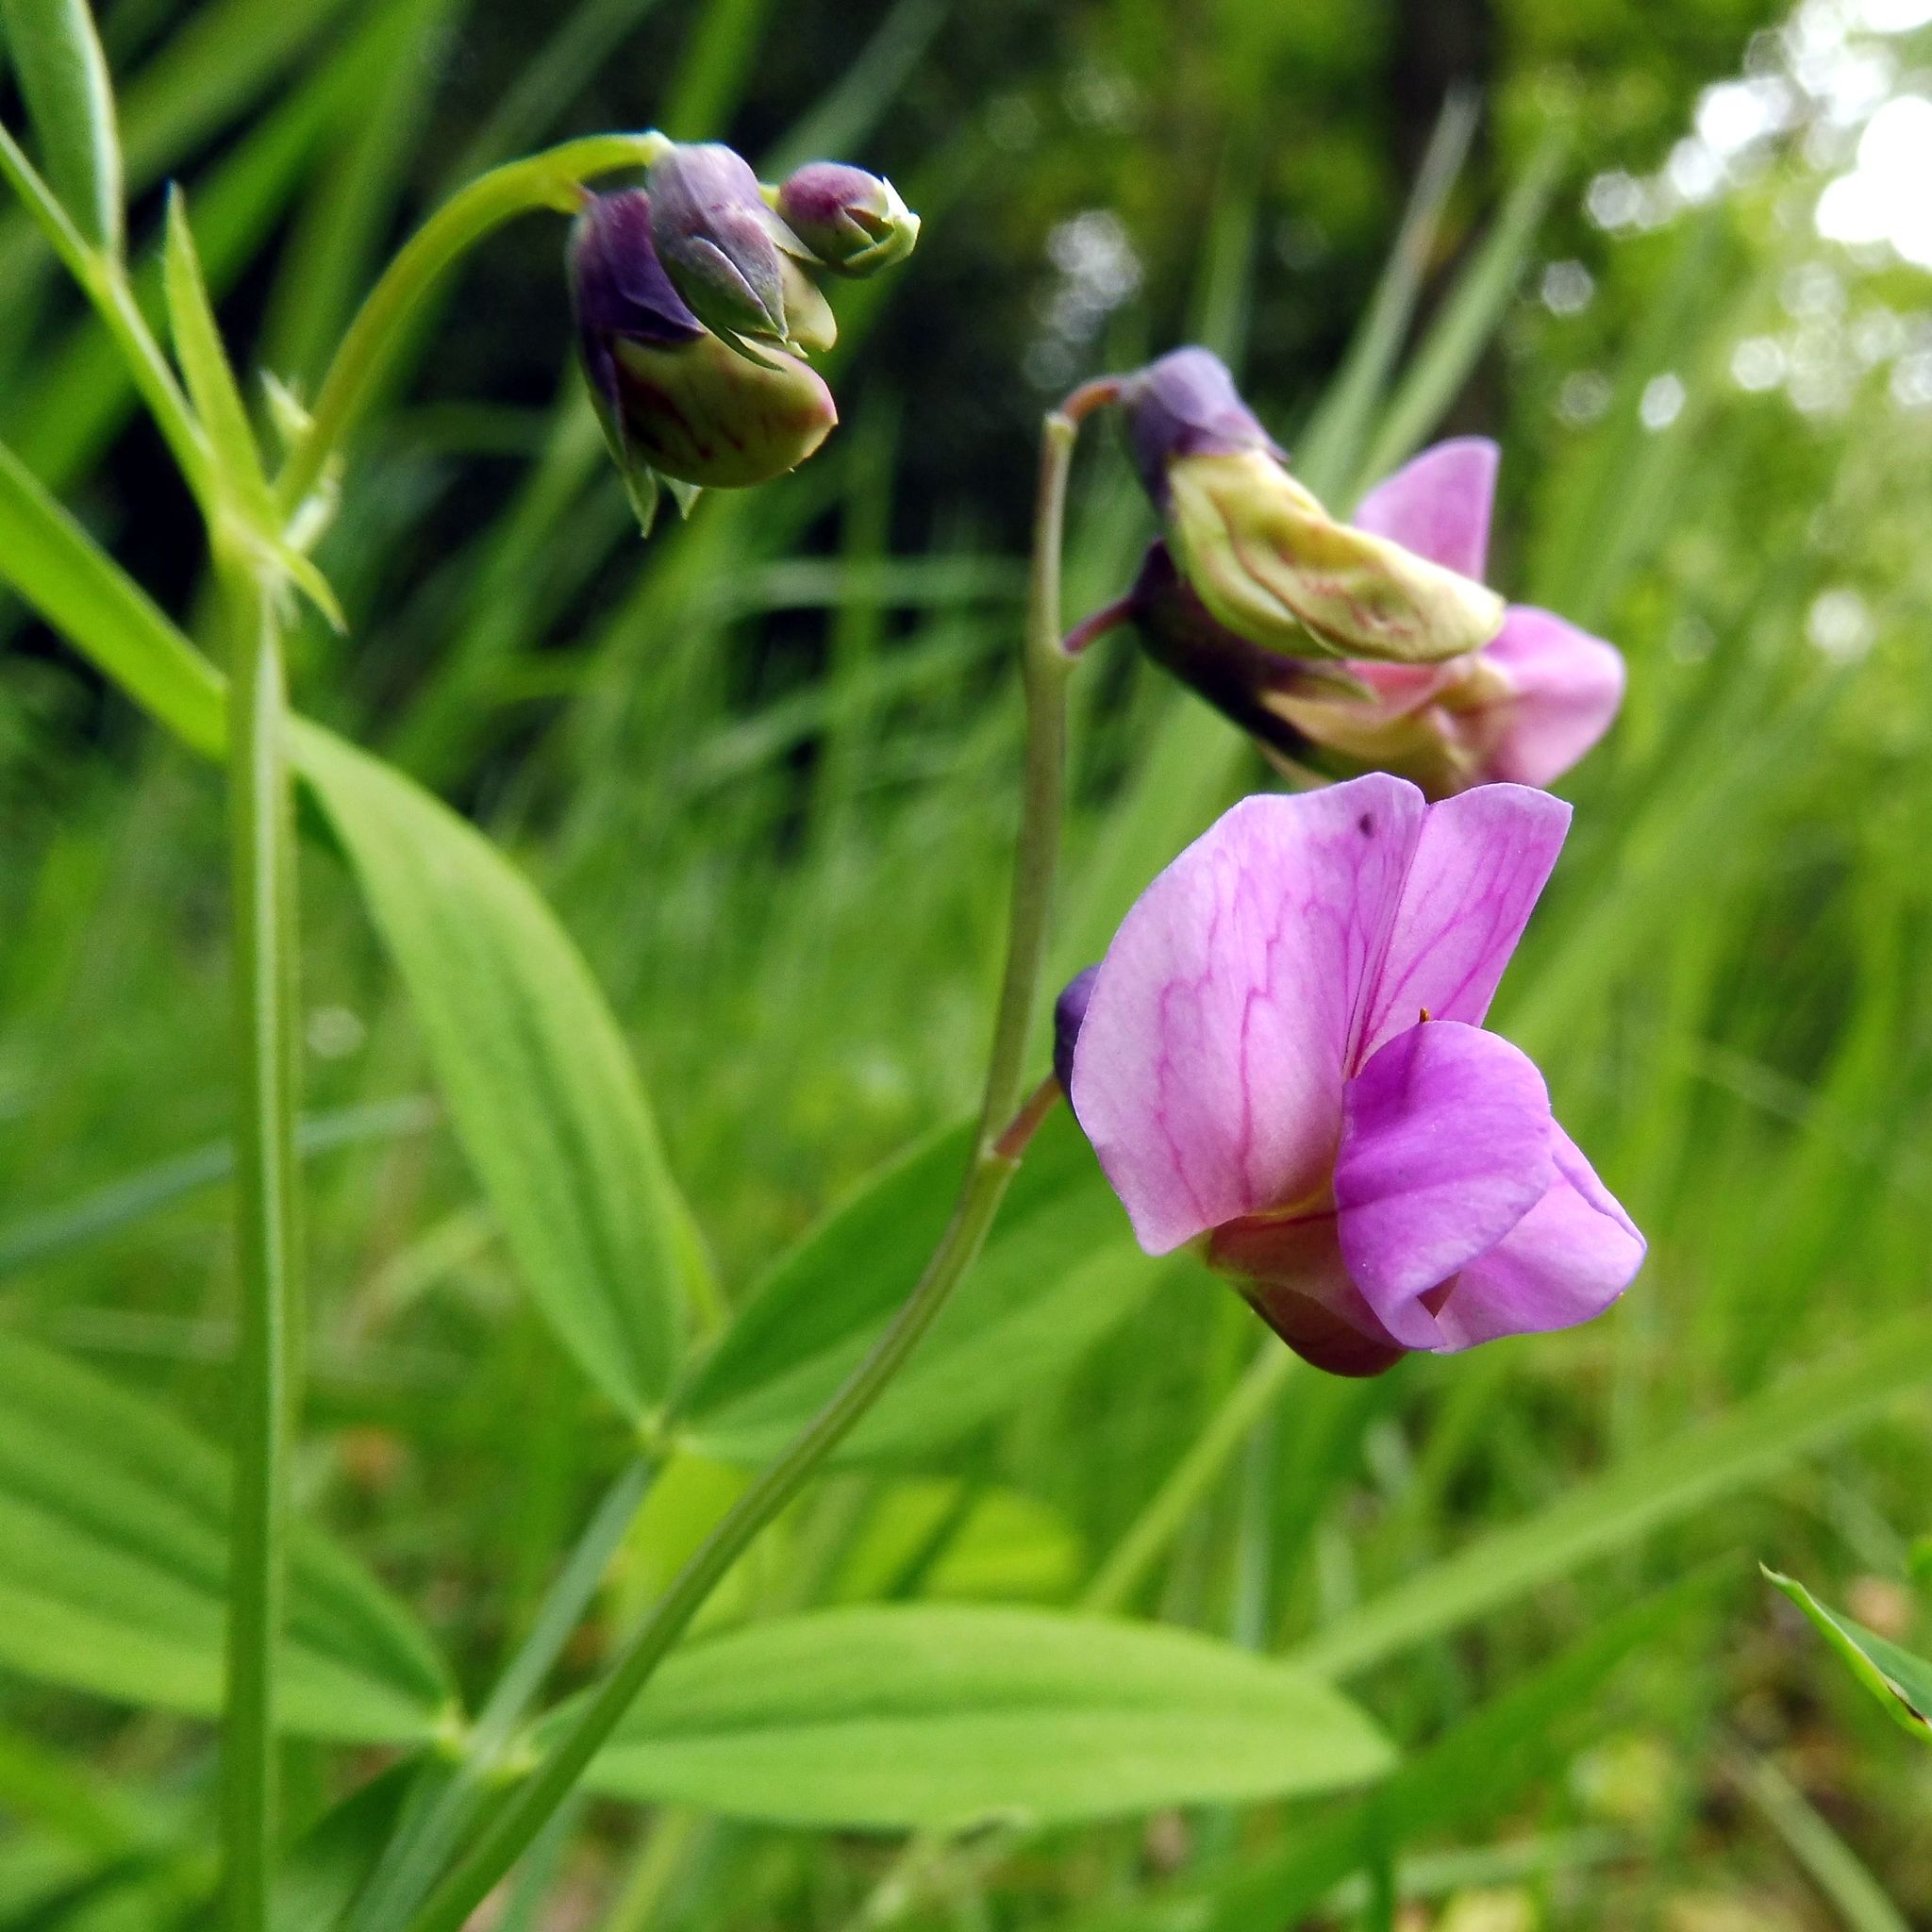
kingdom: Plantae
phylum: Tracheophyta
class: Magnoliopsida
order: Fabales
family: Fabaceae
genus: Lathyrus
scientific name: Lathyrus linifolius
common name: Bitter-vetch
